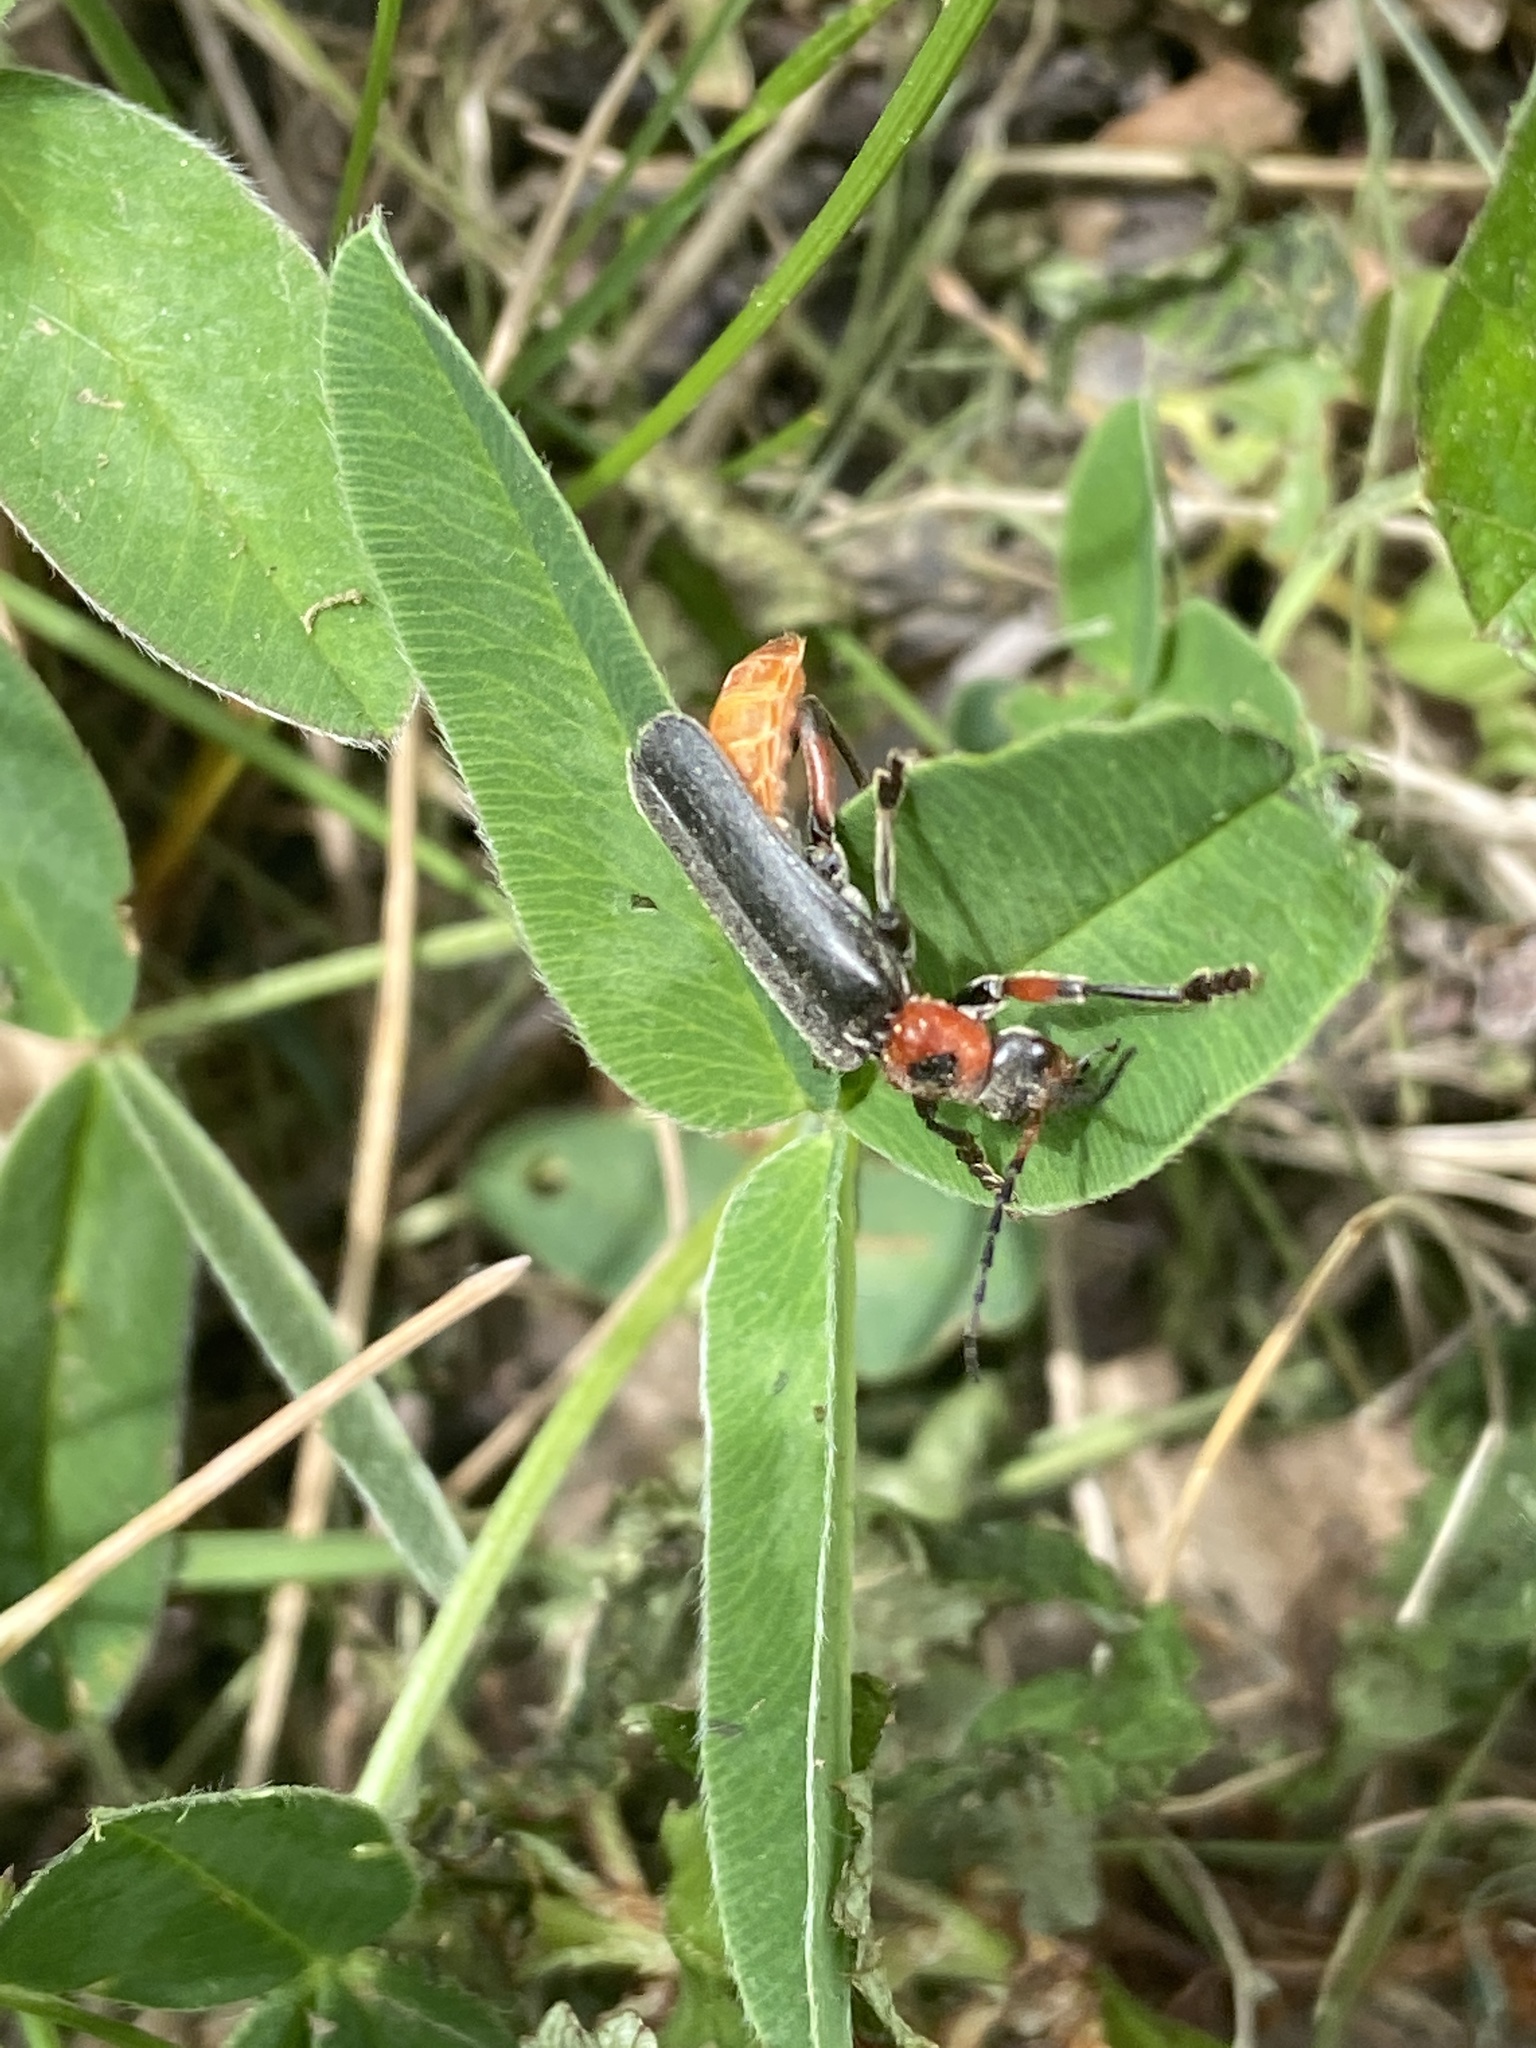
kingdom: Animalia
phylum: Arthropoda
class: Insecta
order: Coleoptera
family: Cantharidae
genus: Cantharis
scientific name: Cantharis rustica
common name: Soldier beetle
